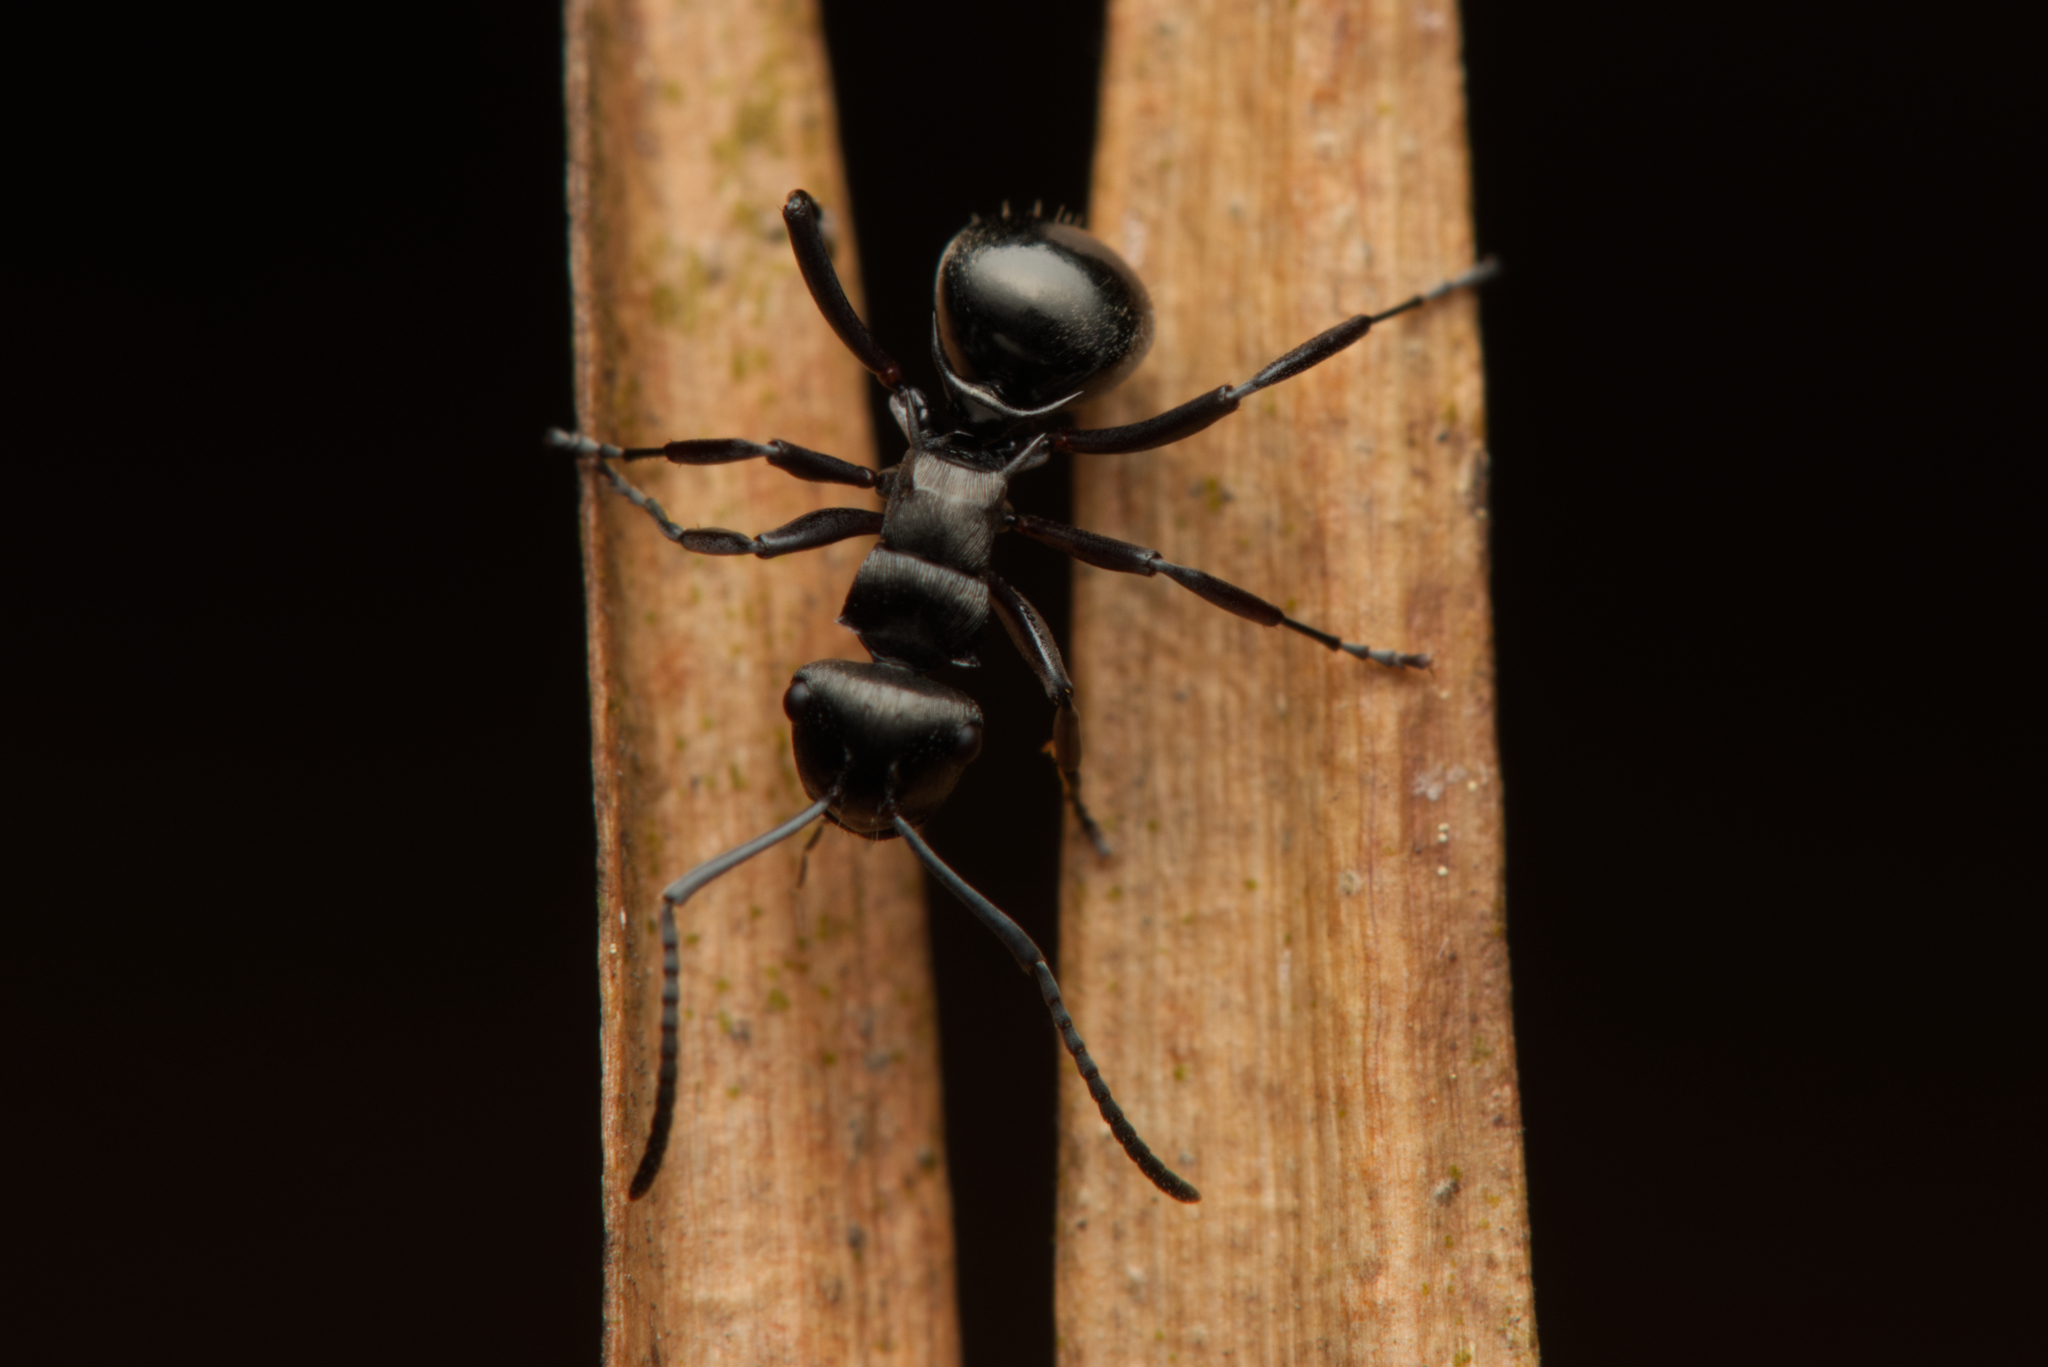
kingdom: Animalia
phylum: Arthropoda
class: Insecta
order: Hymenoptera
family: Formicidae
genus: Polyrhachis
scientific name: Polyrhachis clio
